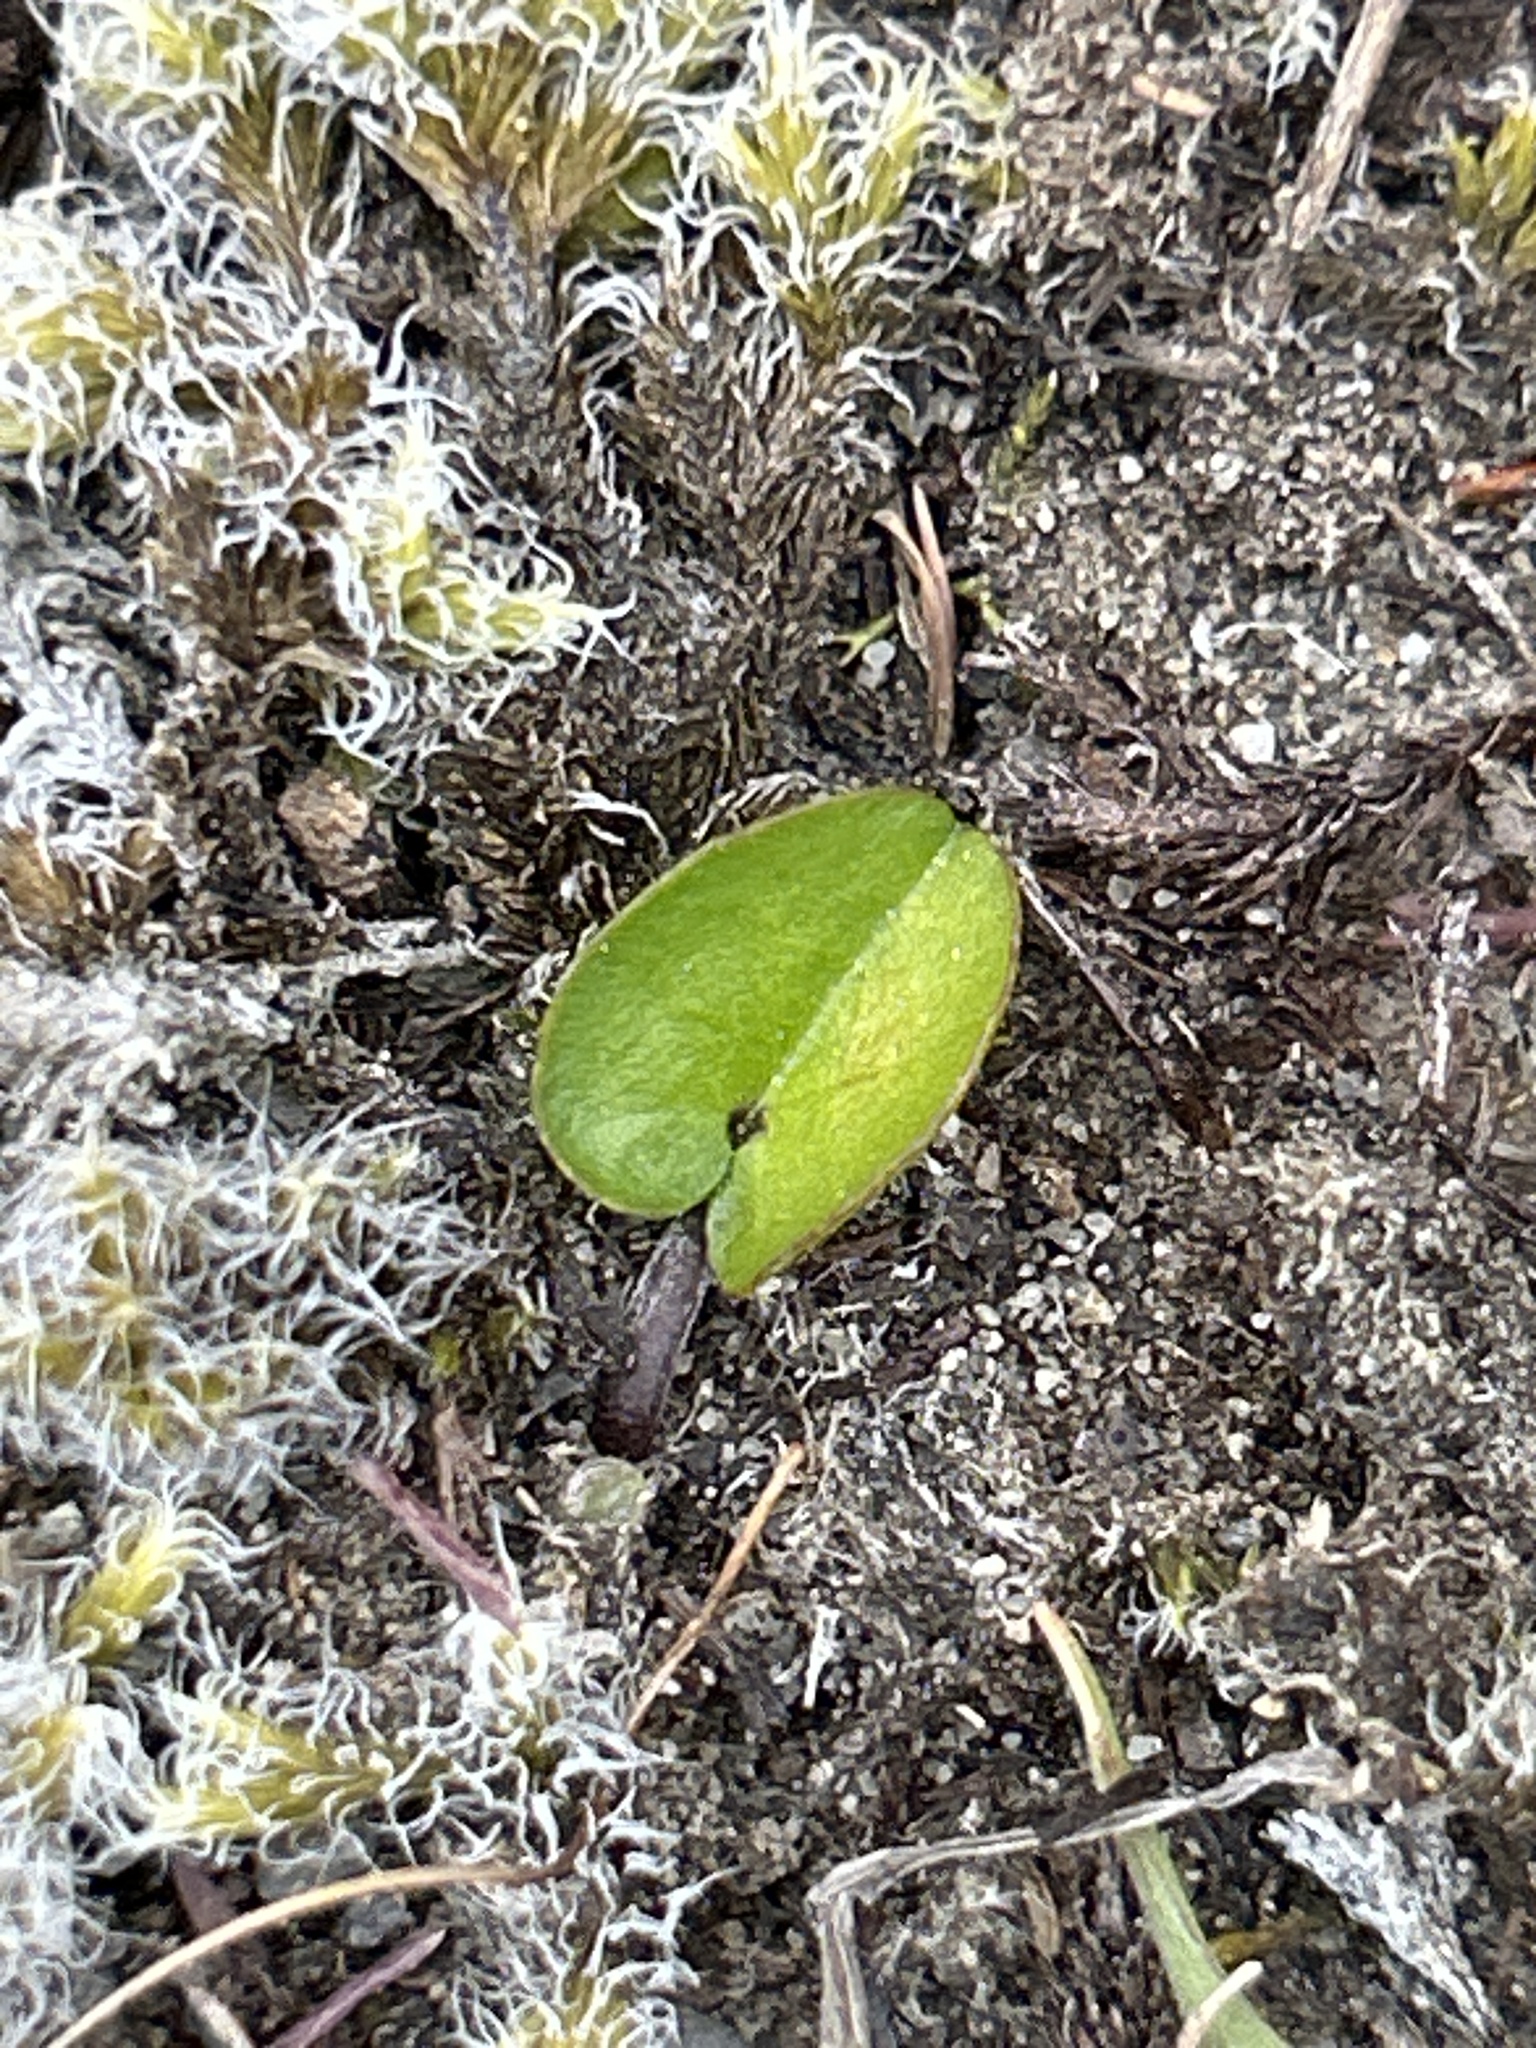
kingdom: Plantae
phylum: Tracheophyta
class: Magnoliopsida
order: Solanales
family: Convolvulaceae
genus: Dichondra
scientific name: Dichondra brevifolia
